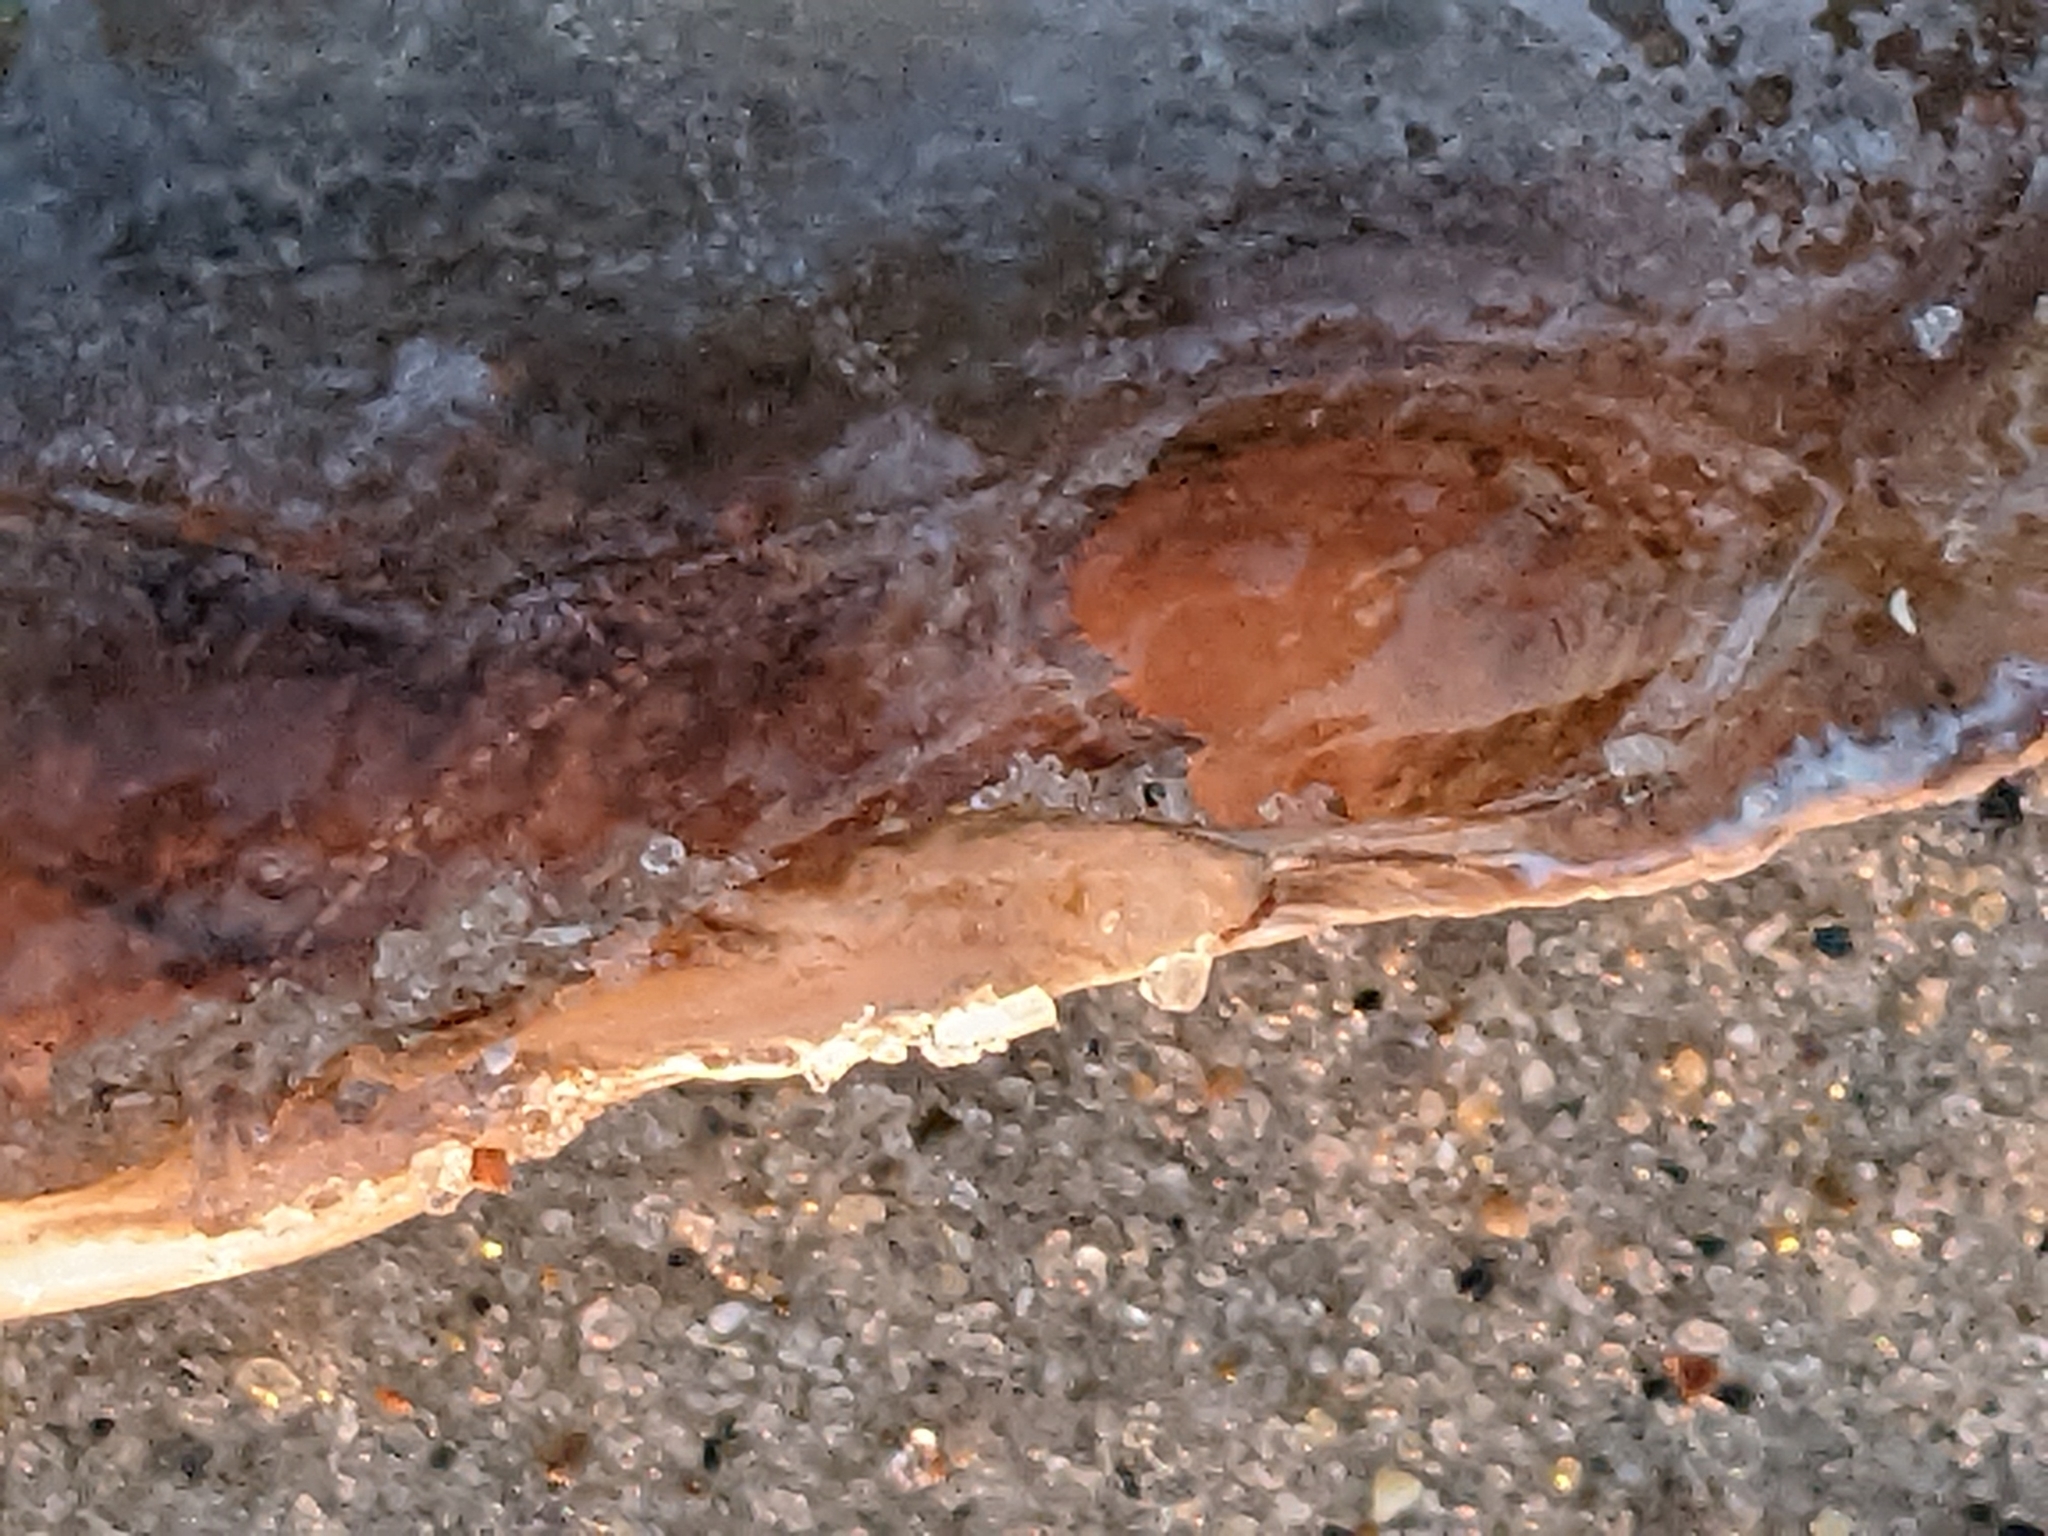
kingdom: Animalia
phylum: Mollusca
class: Bivalvia
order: Cardiida
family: Solecurtidae
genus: Tagelus
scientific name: Tagelus plebeius
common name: Stout tagelus
